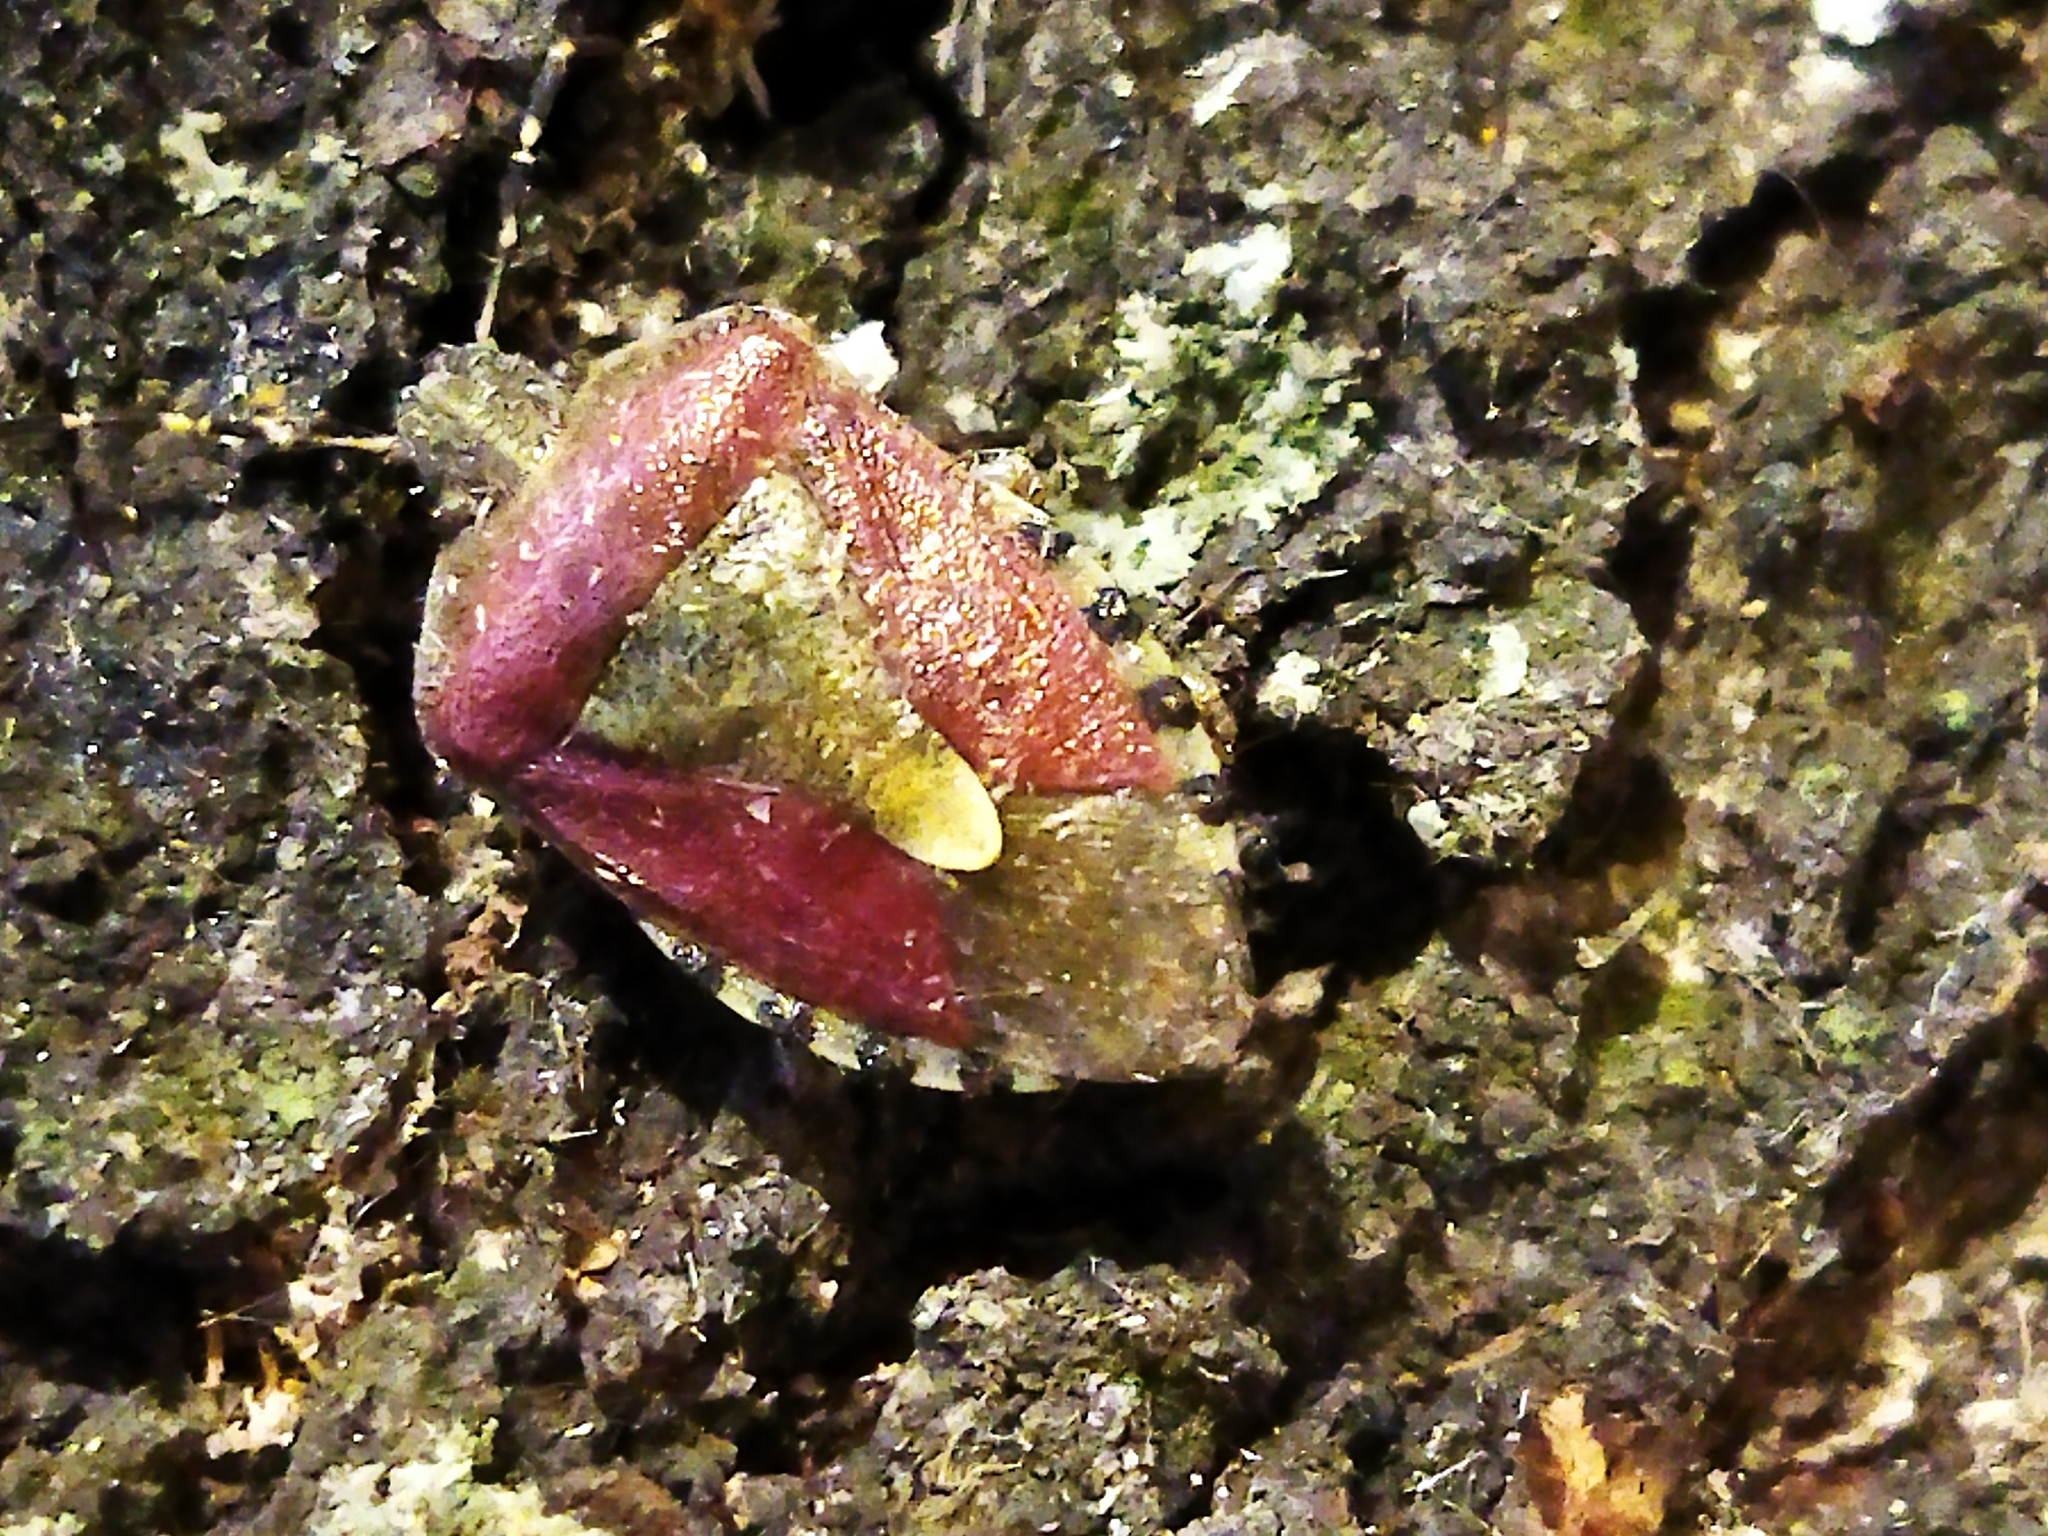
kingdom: Animalia
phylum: Arthropoda
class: Insecta
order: Hemiptera
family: Pentatomidae
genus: Dolycoris
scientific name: Dolycoris baccarum
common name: Sloe bug
